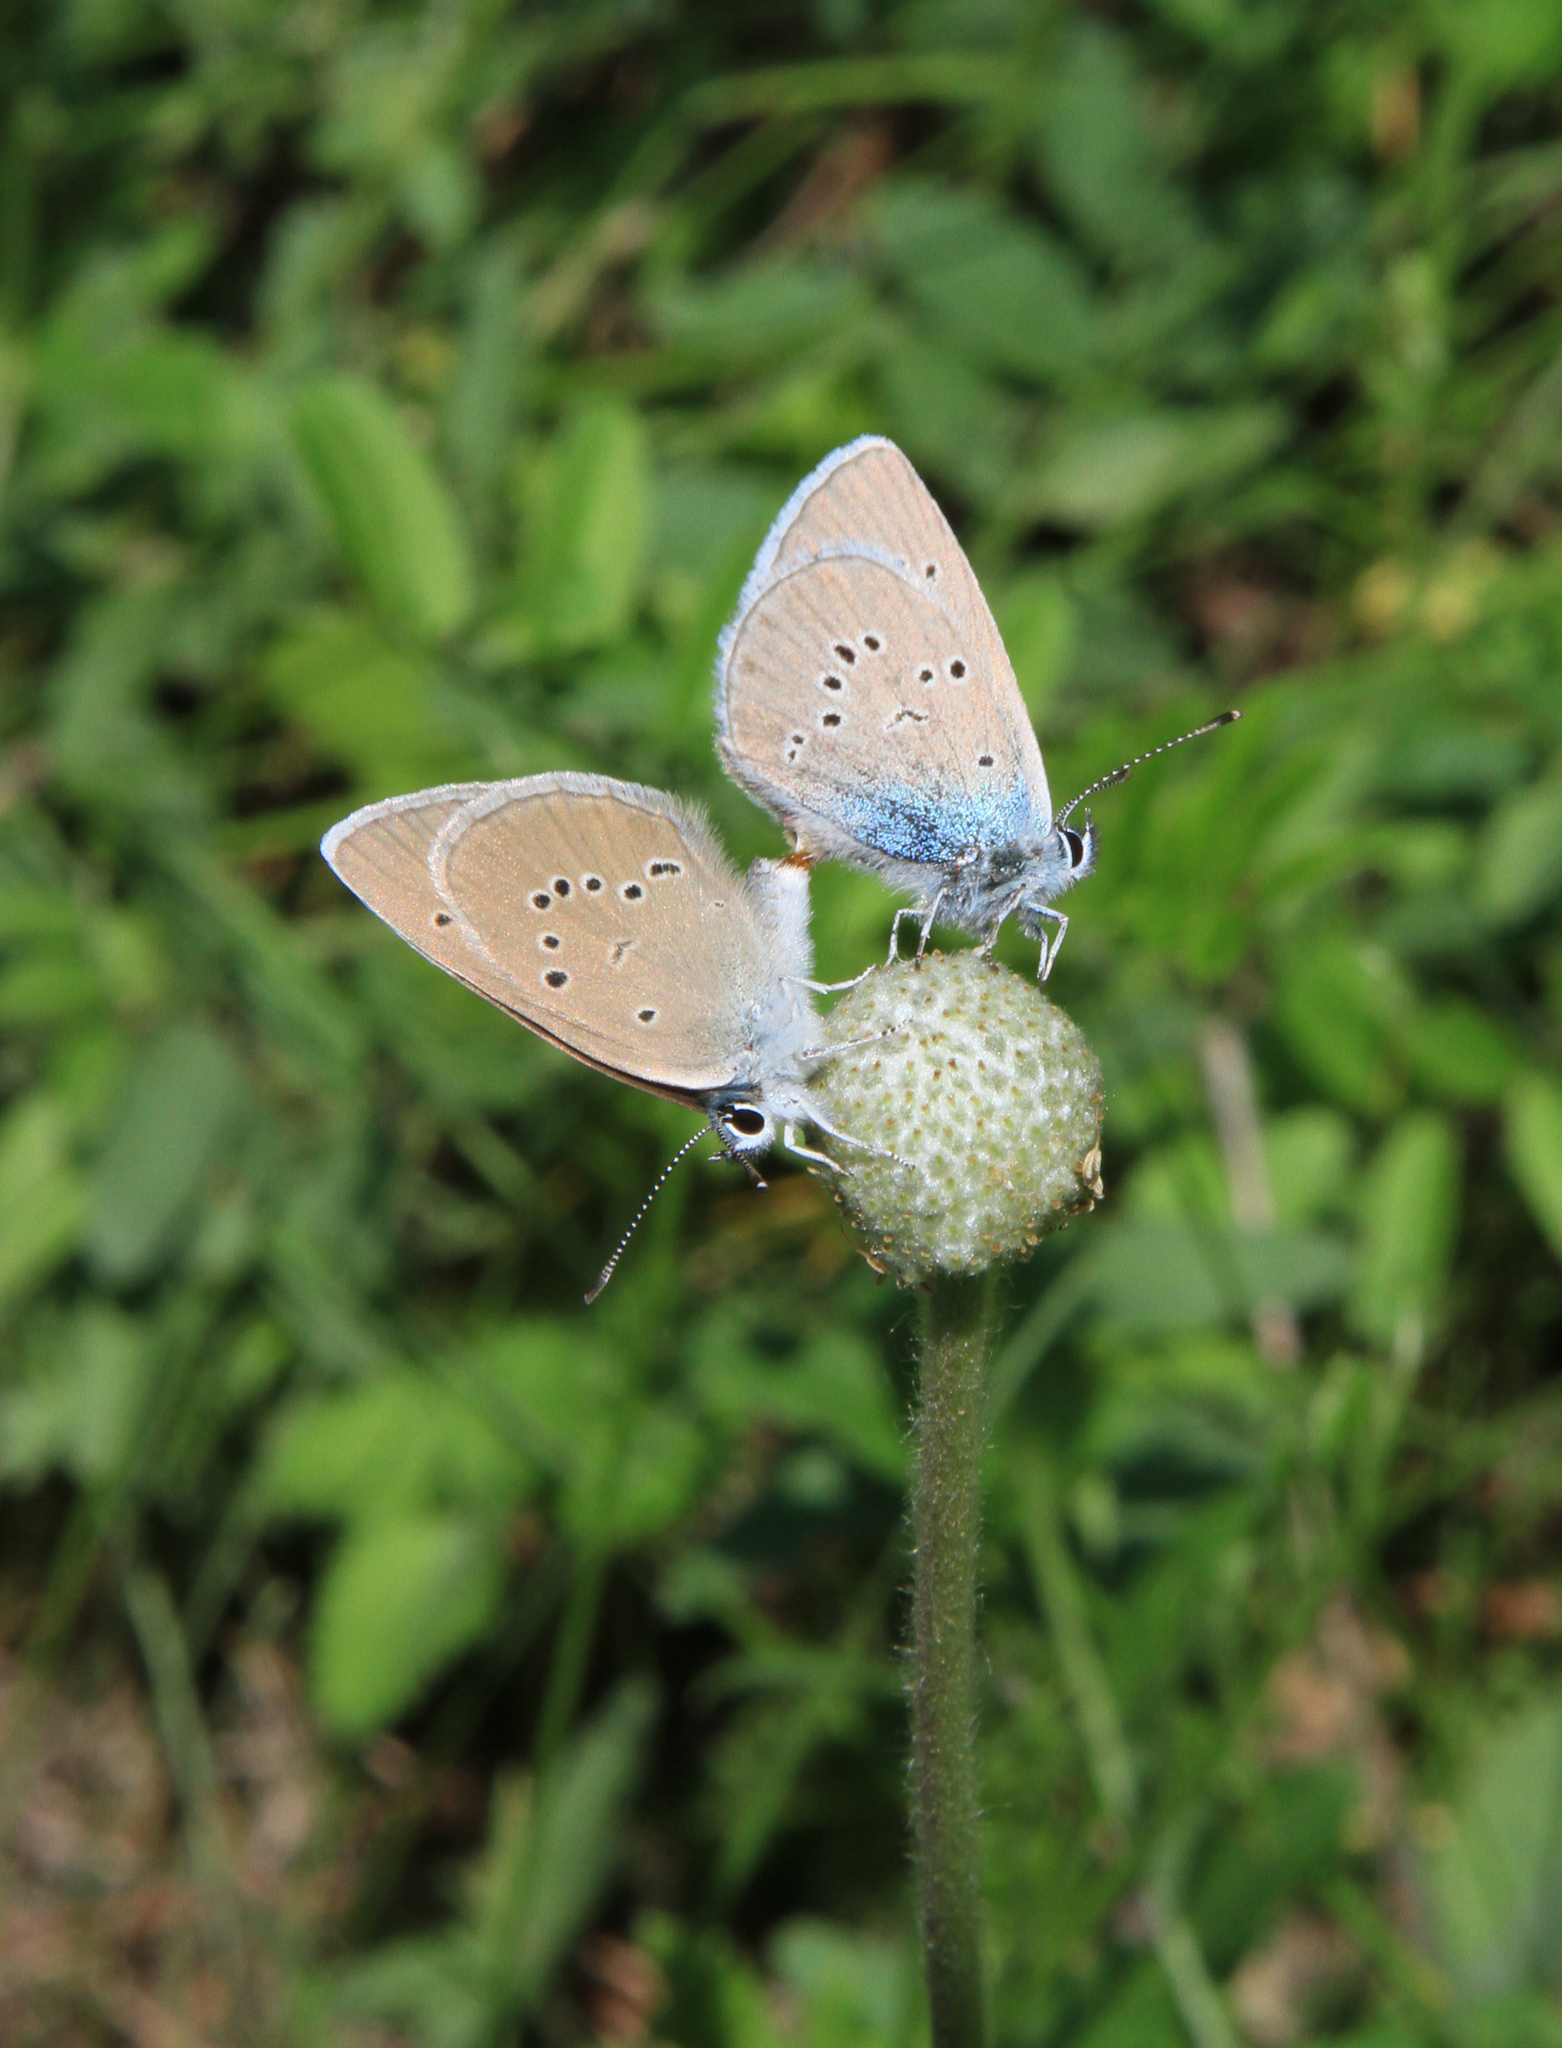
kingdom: Animalia
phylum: Arthropoda
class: Insecta
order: Lepidoptera
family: Lycaenidae
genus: Cyaniris
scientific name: Cyaniris semiargus
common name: Mazarine blue
